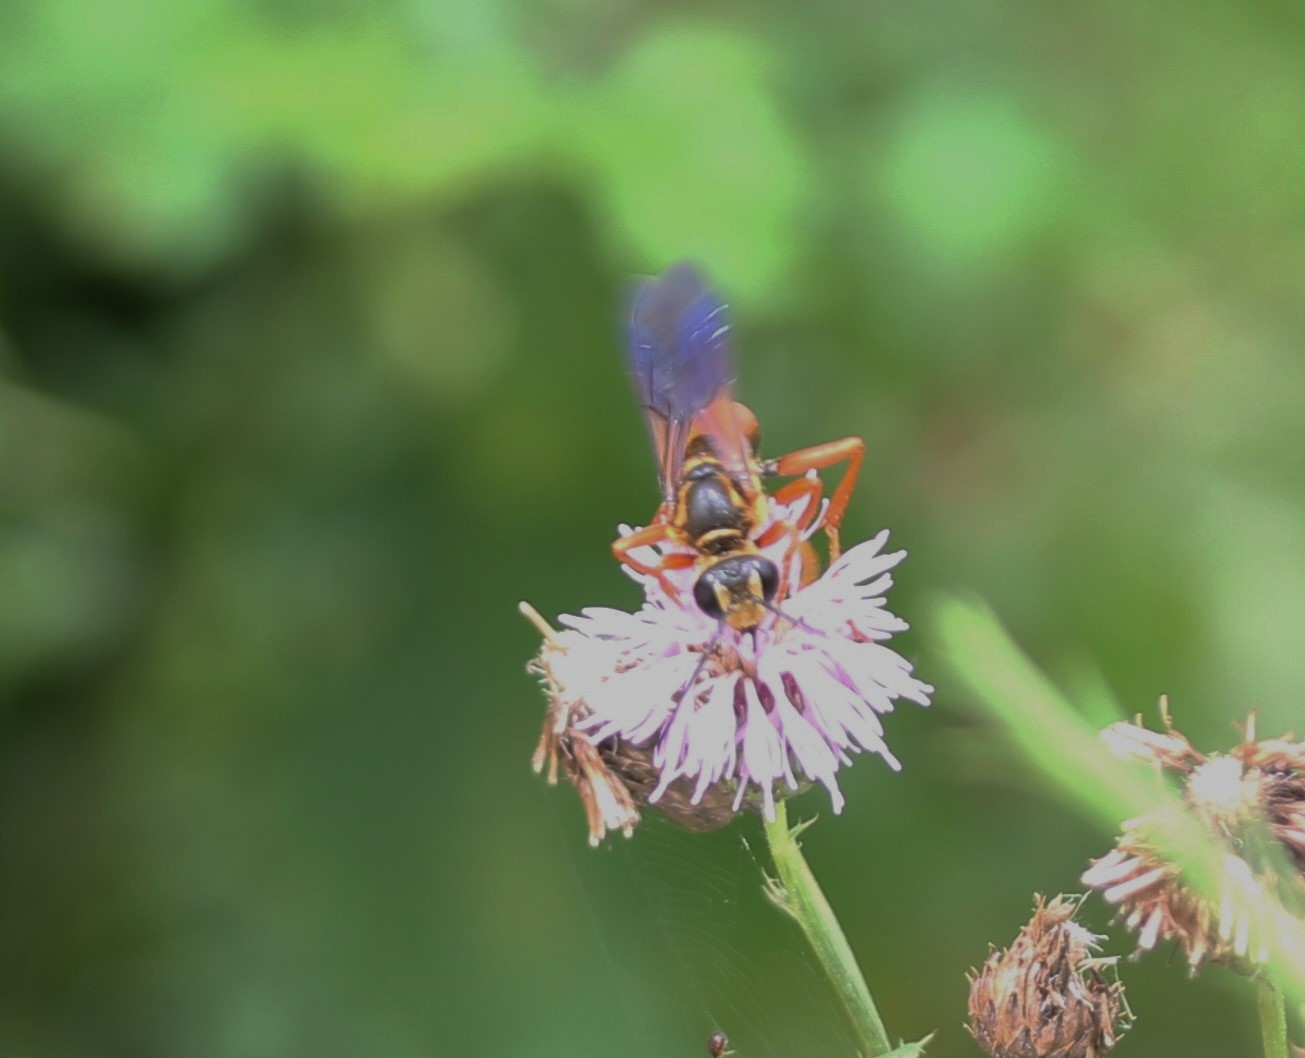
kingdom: Animalia
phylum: Arthropoda
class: Insecta
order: Hymenoptera
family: Sphecidae
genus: Sphex
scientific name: Sphex ichneumoneus
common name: Great golden digger wasp
